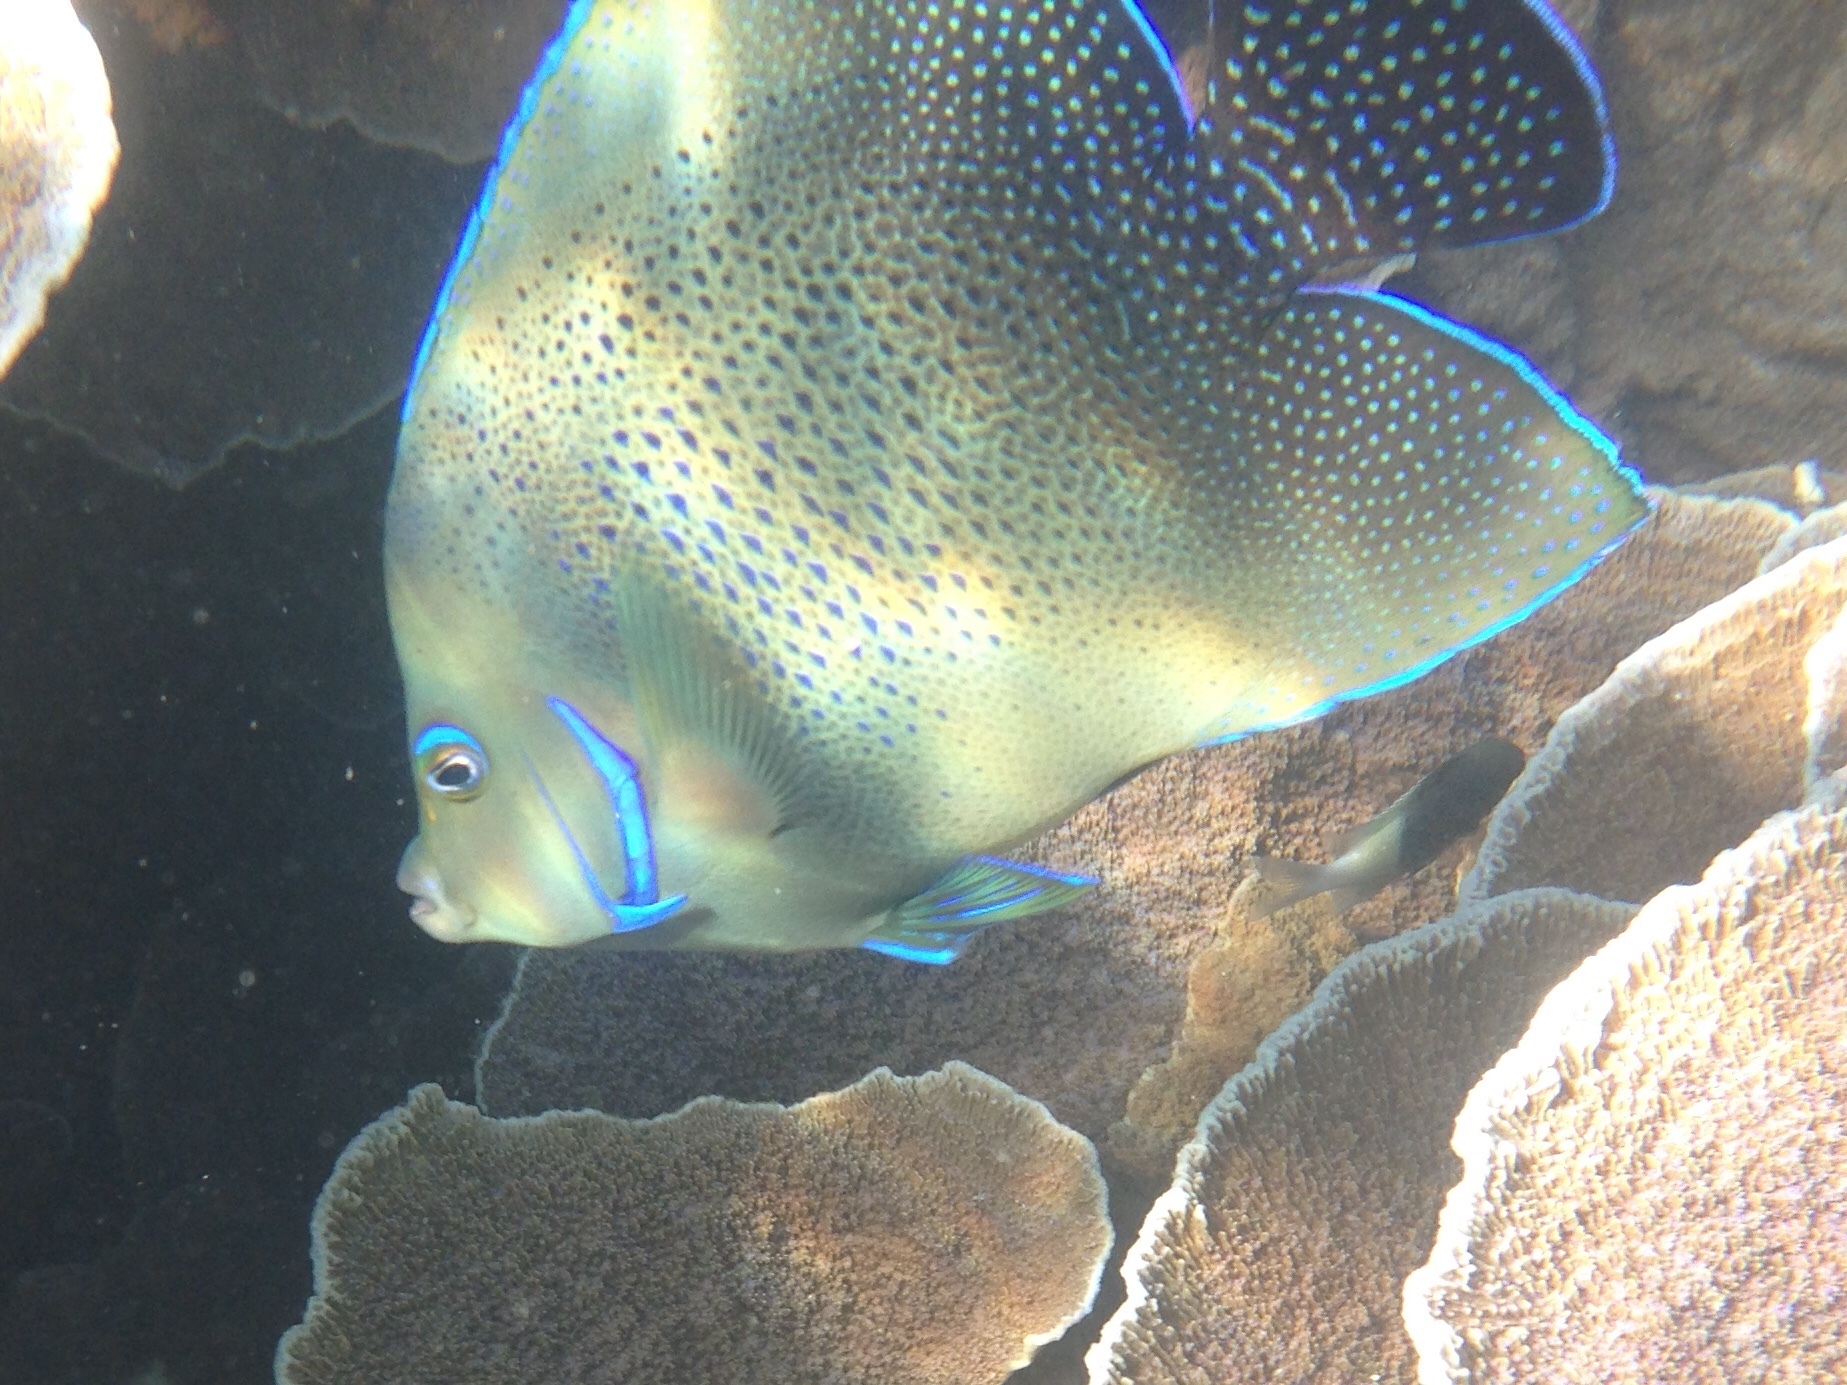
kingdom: Animalia
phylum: Chordata
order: Perciformes
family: Pomacanthidae
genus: Pomacanthus
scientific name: Pomacanthus semicirculatus
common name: Semicircle angelfish
